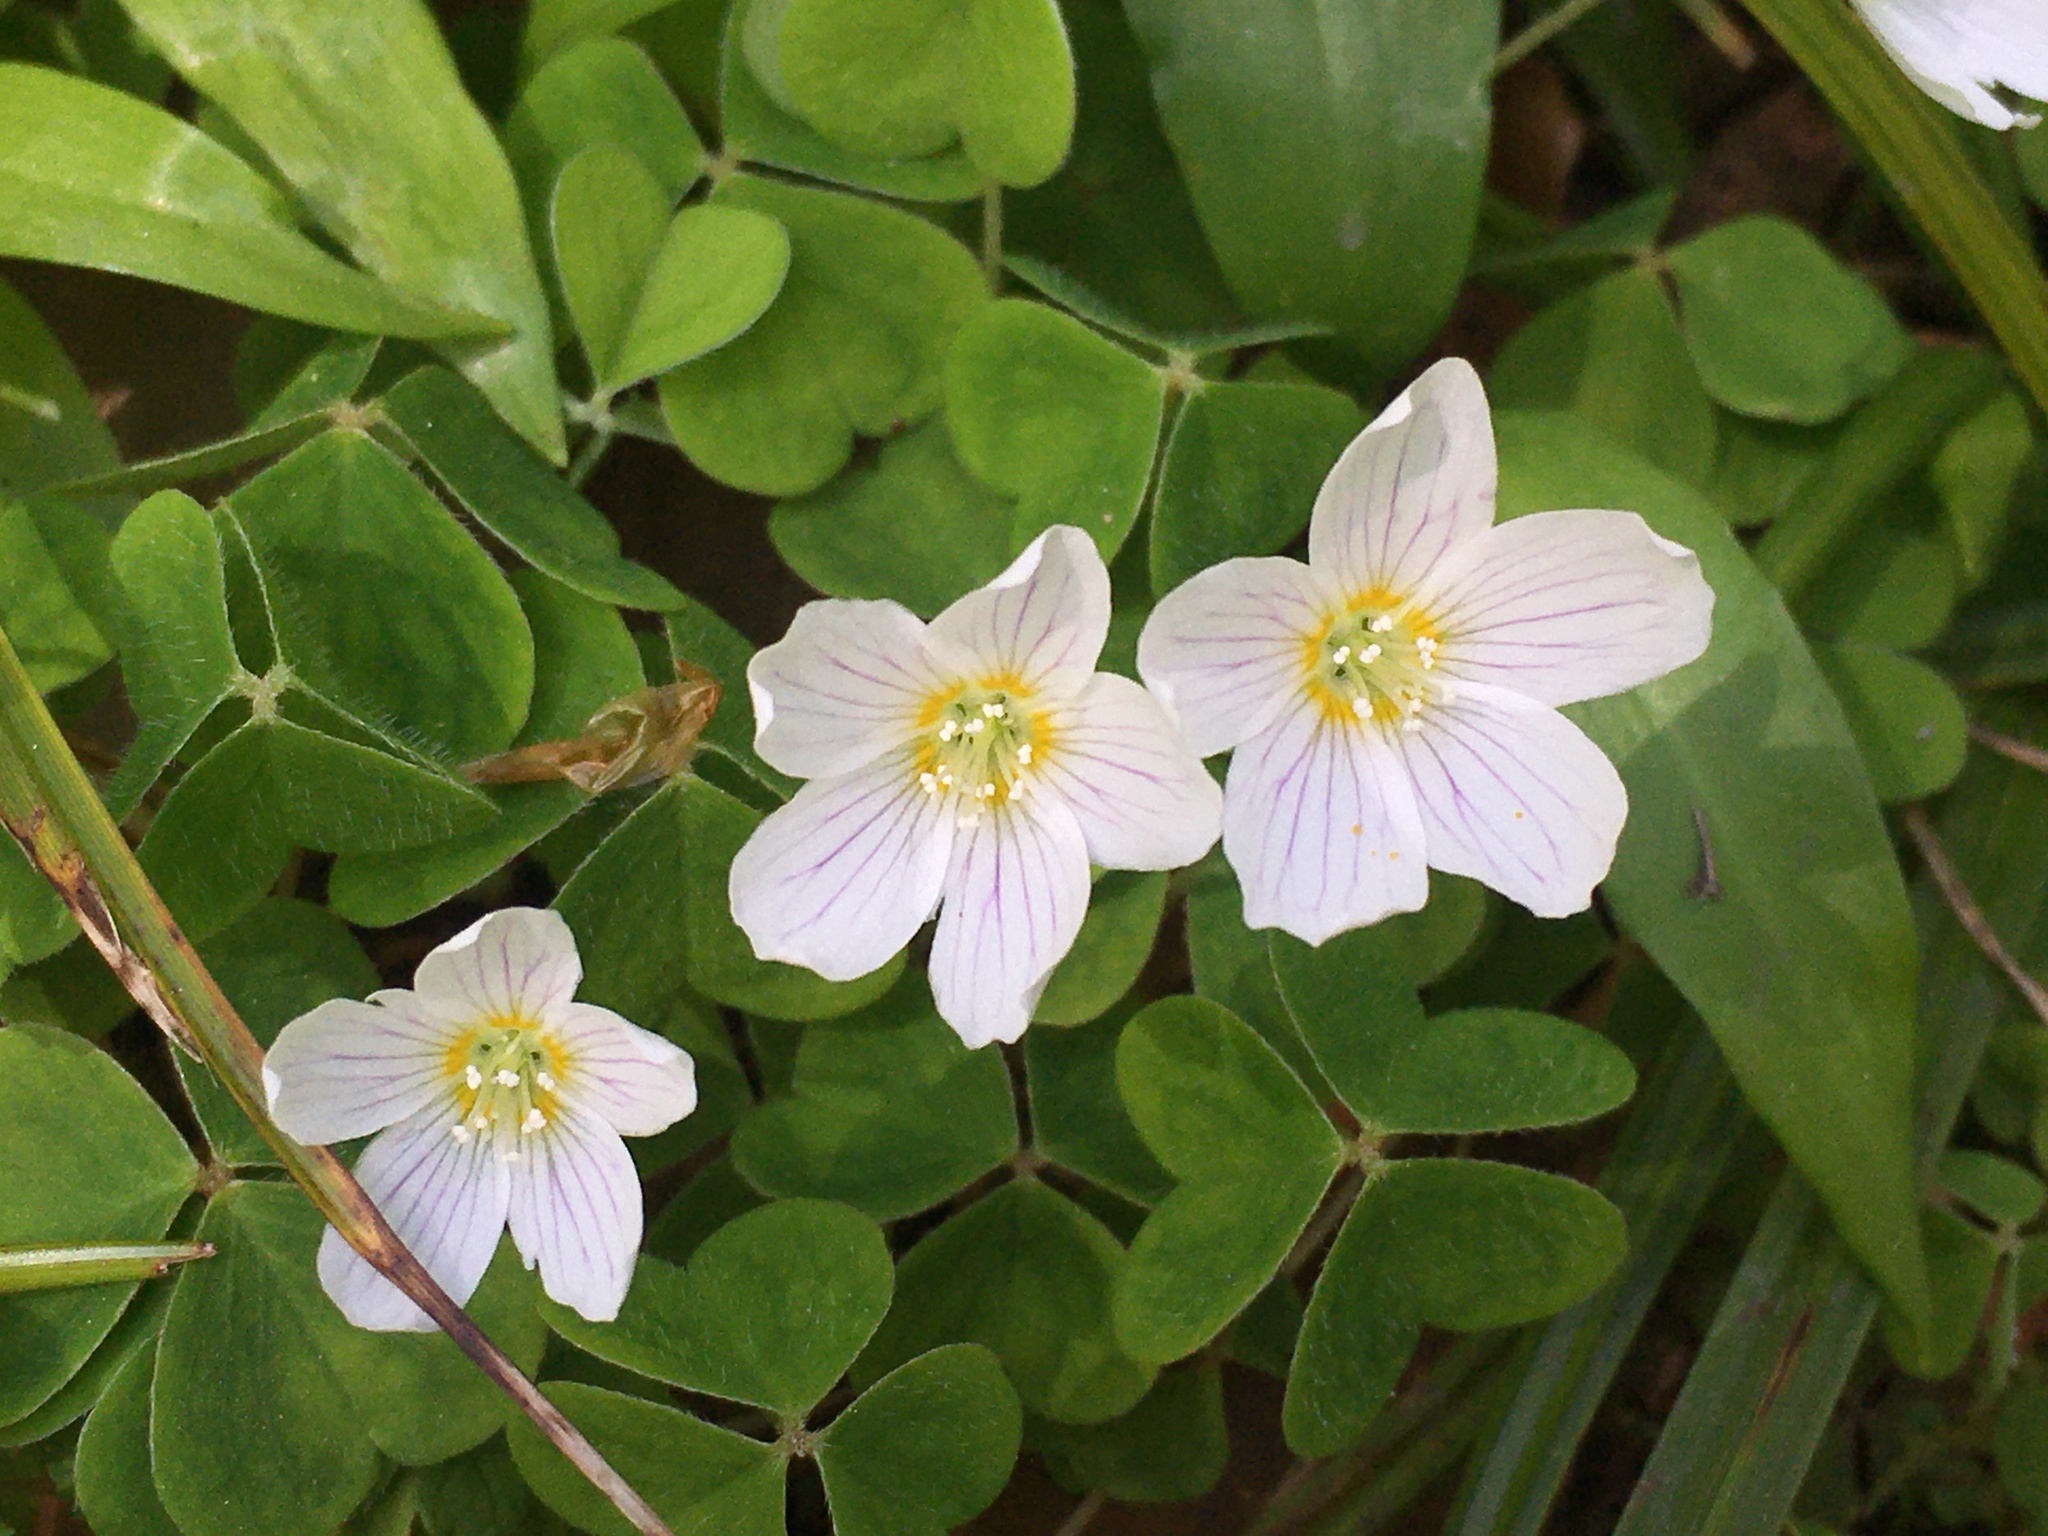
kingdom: Plantae
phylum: Tracheophyta
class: Magnoliopsida
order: Oxalidales
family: Oxalidaceae
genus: Oxalis
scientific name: Oxalis acetosella
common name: Wood-sorrel
